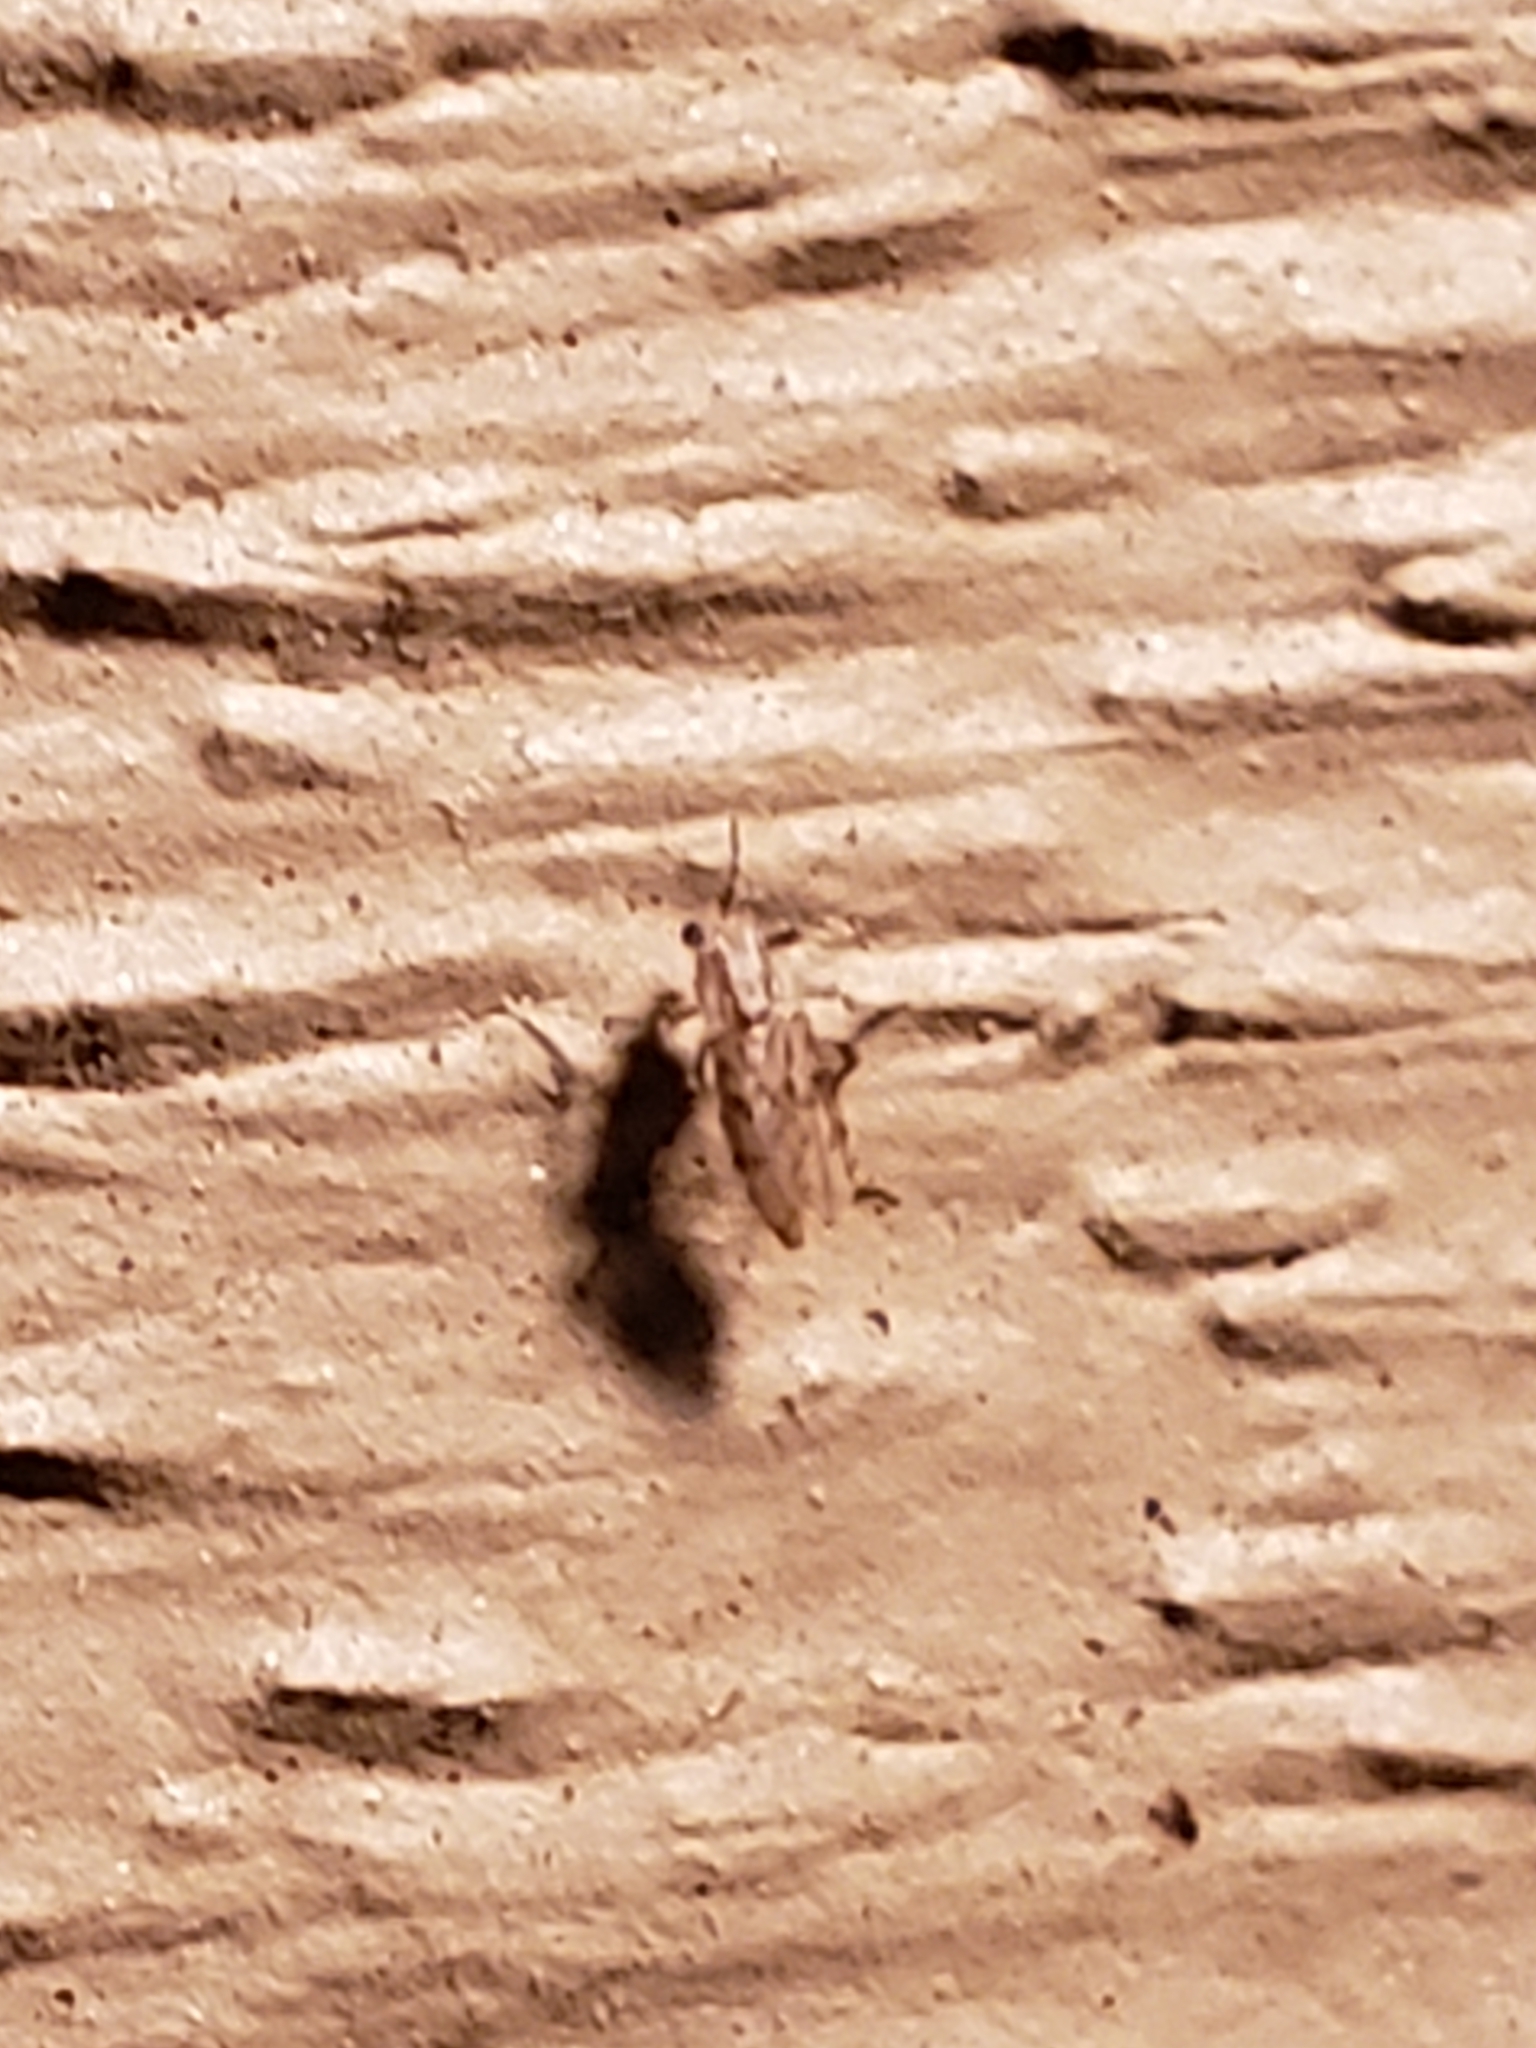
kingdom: Animalia
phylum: Arthropoda
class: Insecta
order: Diptera
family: Chaoboridae
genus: Chaoborus
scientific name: Chaoborus punctipennis
